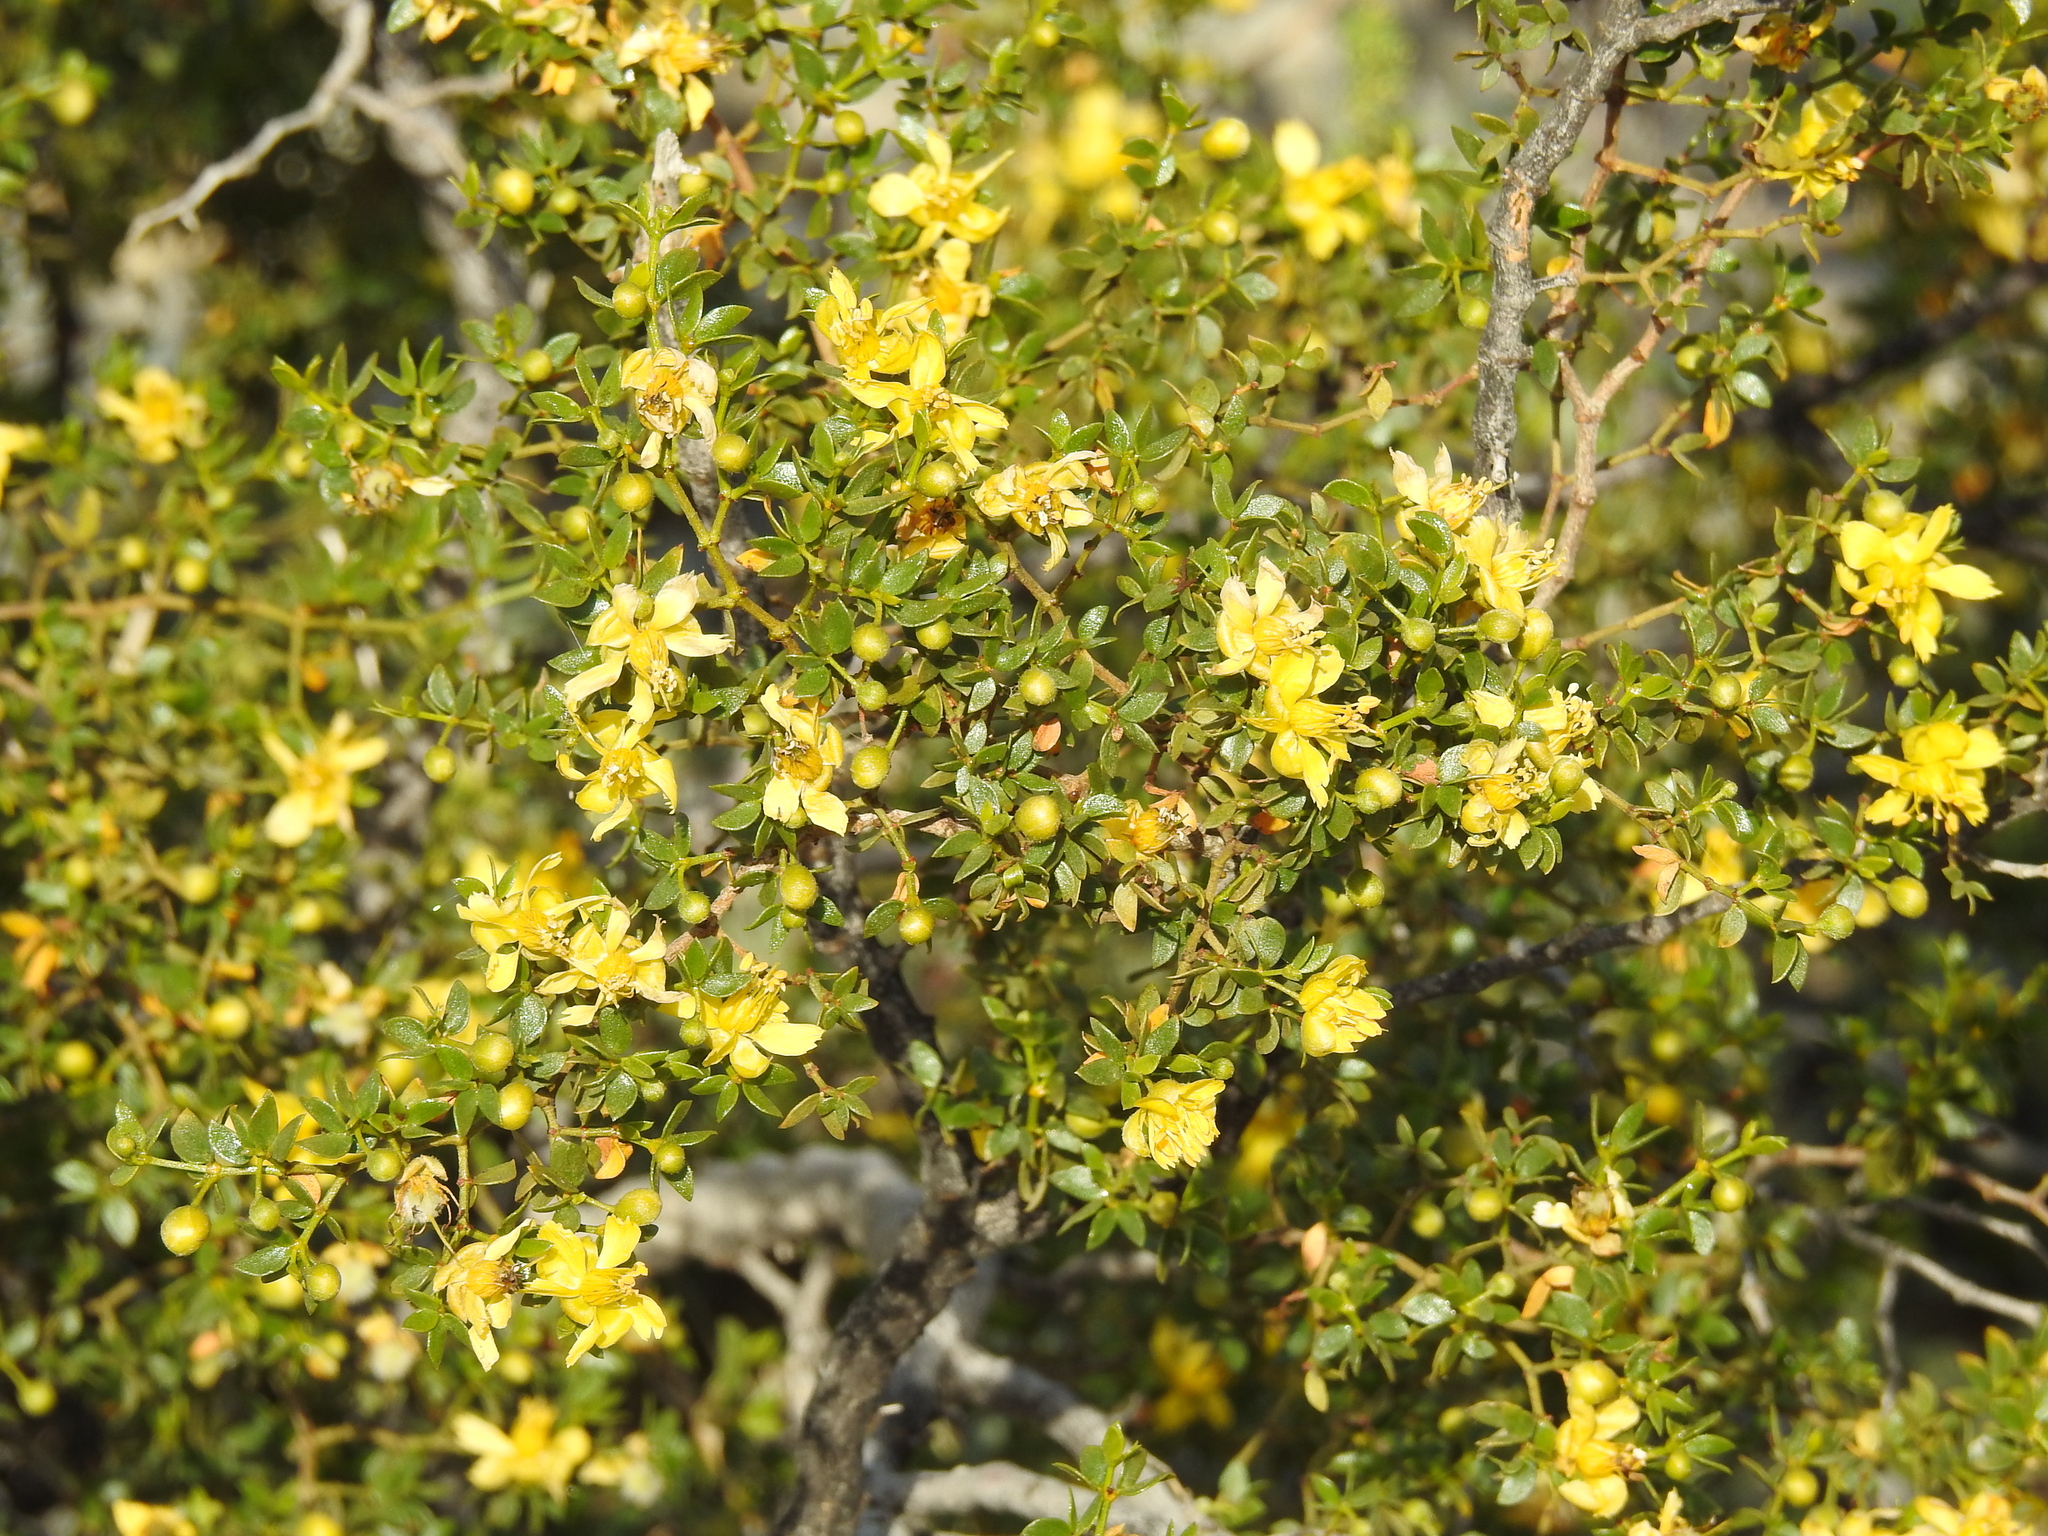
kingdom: Plantae
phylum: Tracheophyta
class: Magnoliopsida
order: Zygophyllales
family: Zygophyllaceae
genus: Larrea
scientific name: Larrea tridentata
